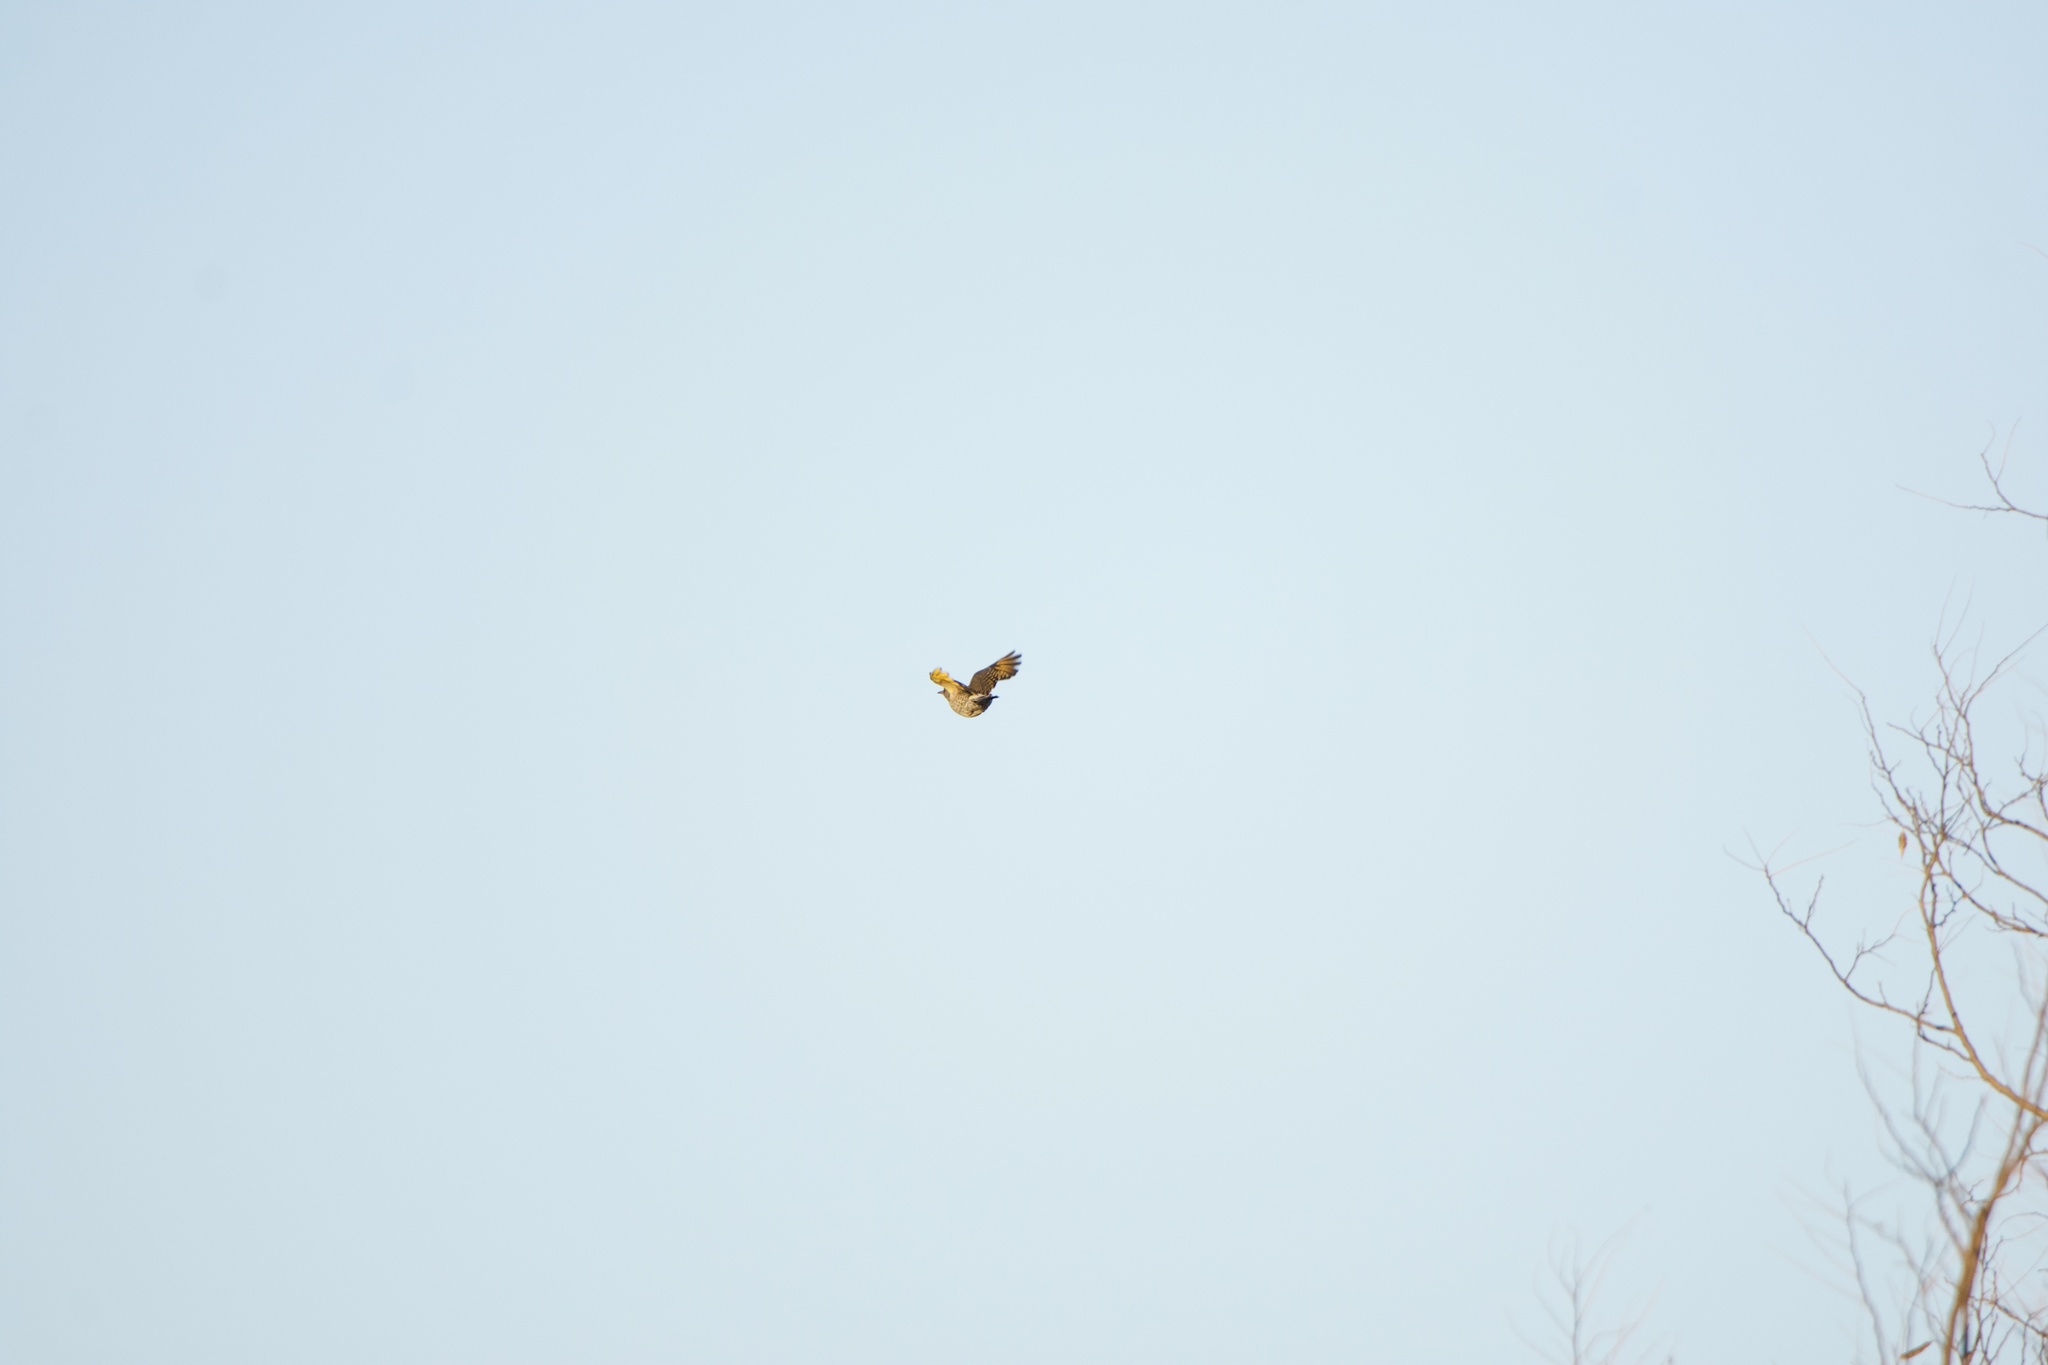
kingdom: Animalia
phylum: Chordata
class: Aves
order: Piciformes
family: Picidae
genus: Colaptes
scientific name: Colaptes auratus
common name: Northern flicker
